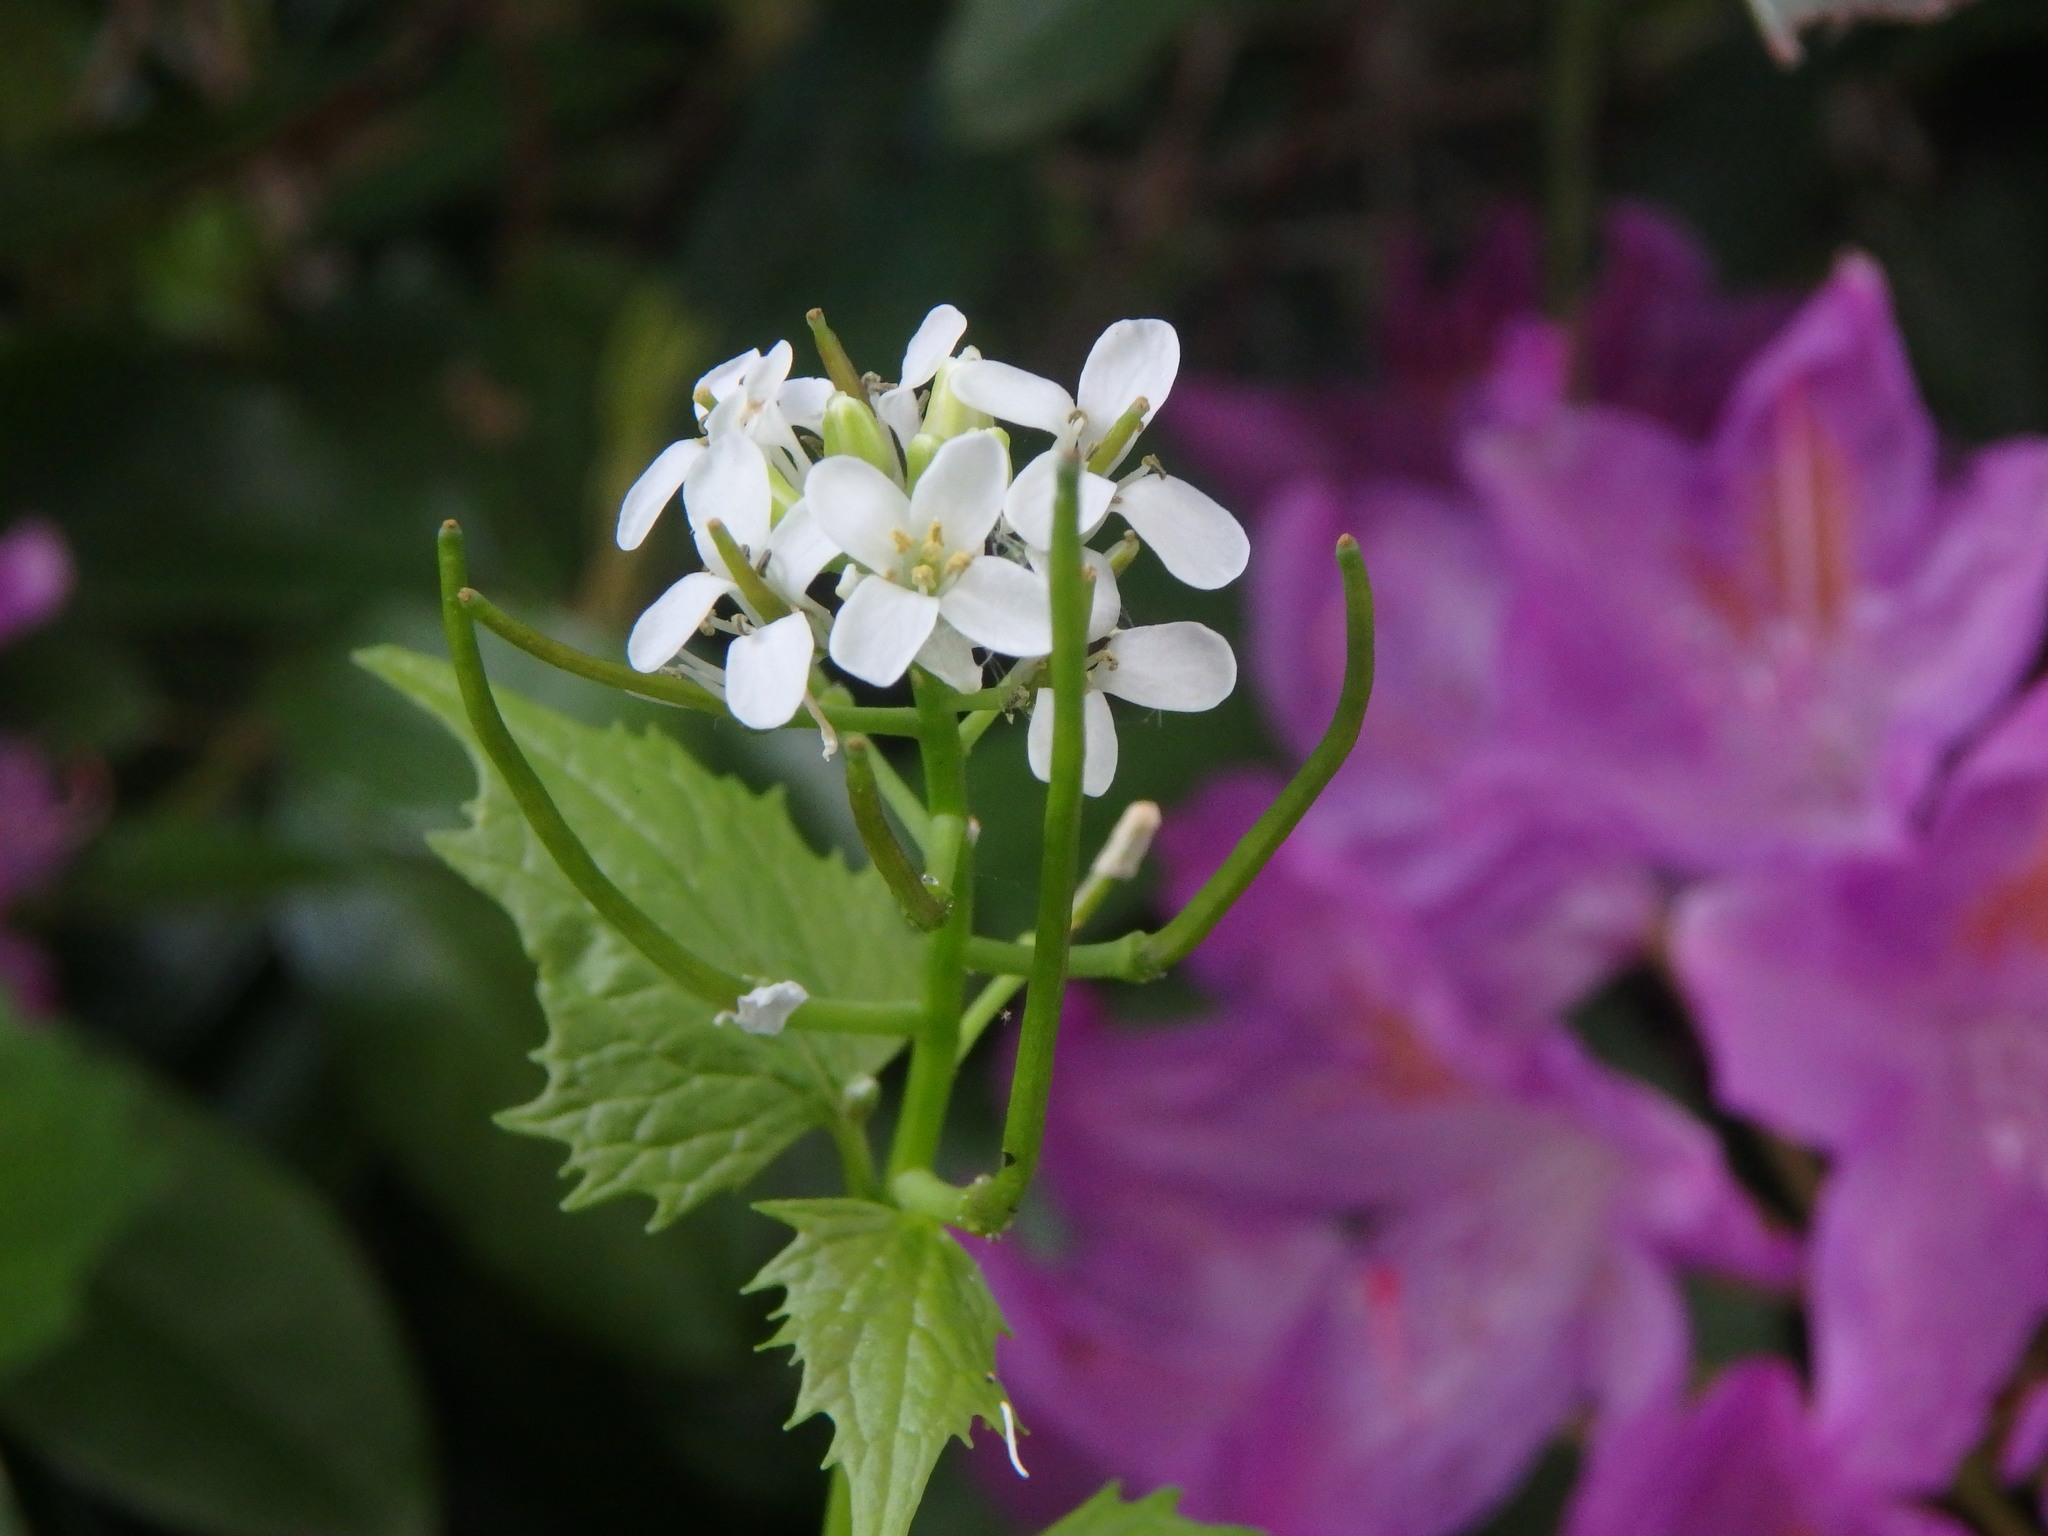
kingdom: Plantae
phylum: Tracheophyta
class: Magnoliopsida
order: Brassicales
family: Brassicaceae
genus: Alliaria
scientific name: Alliaria petiolata
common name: Garlic mustard
